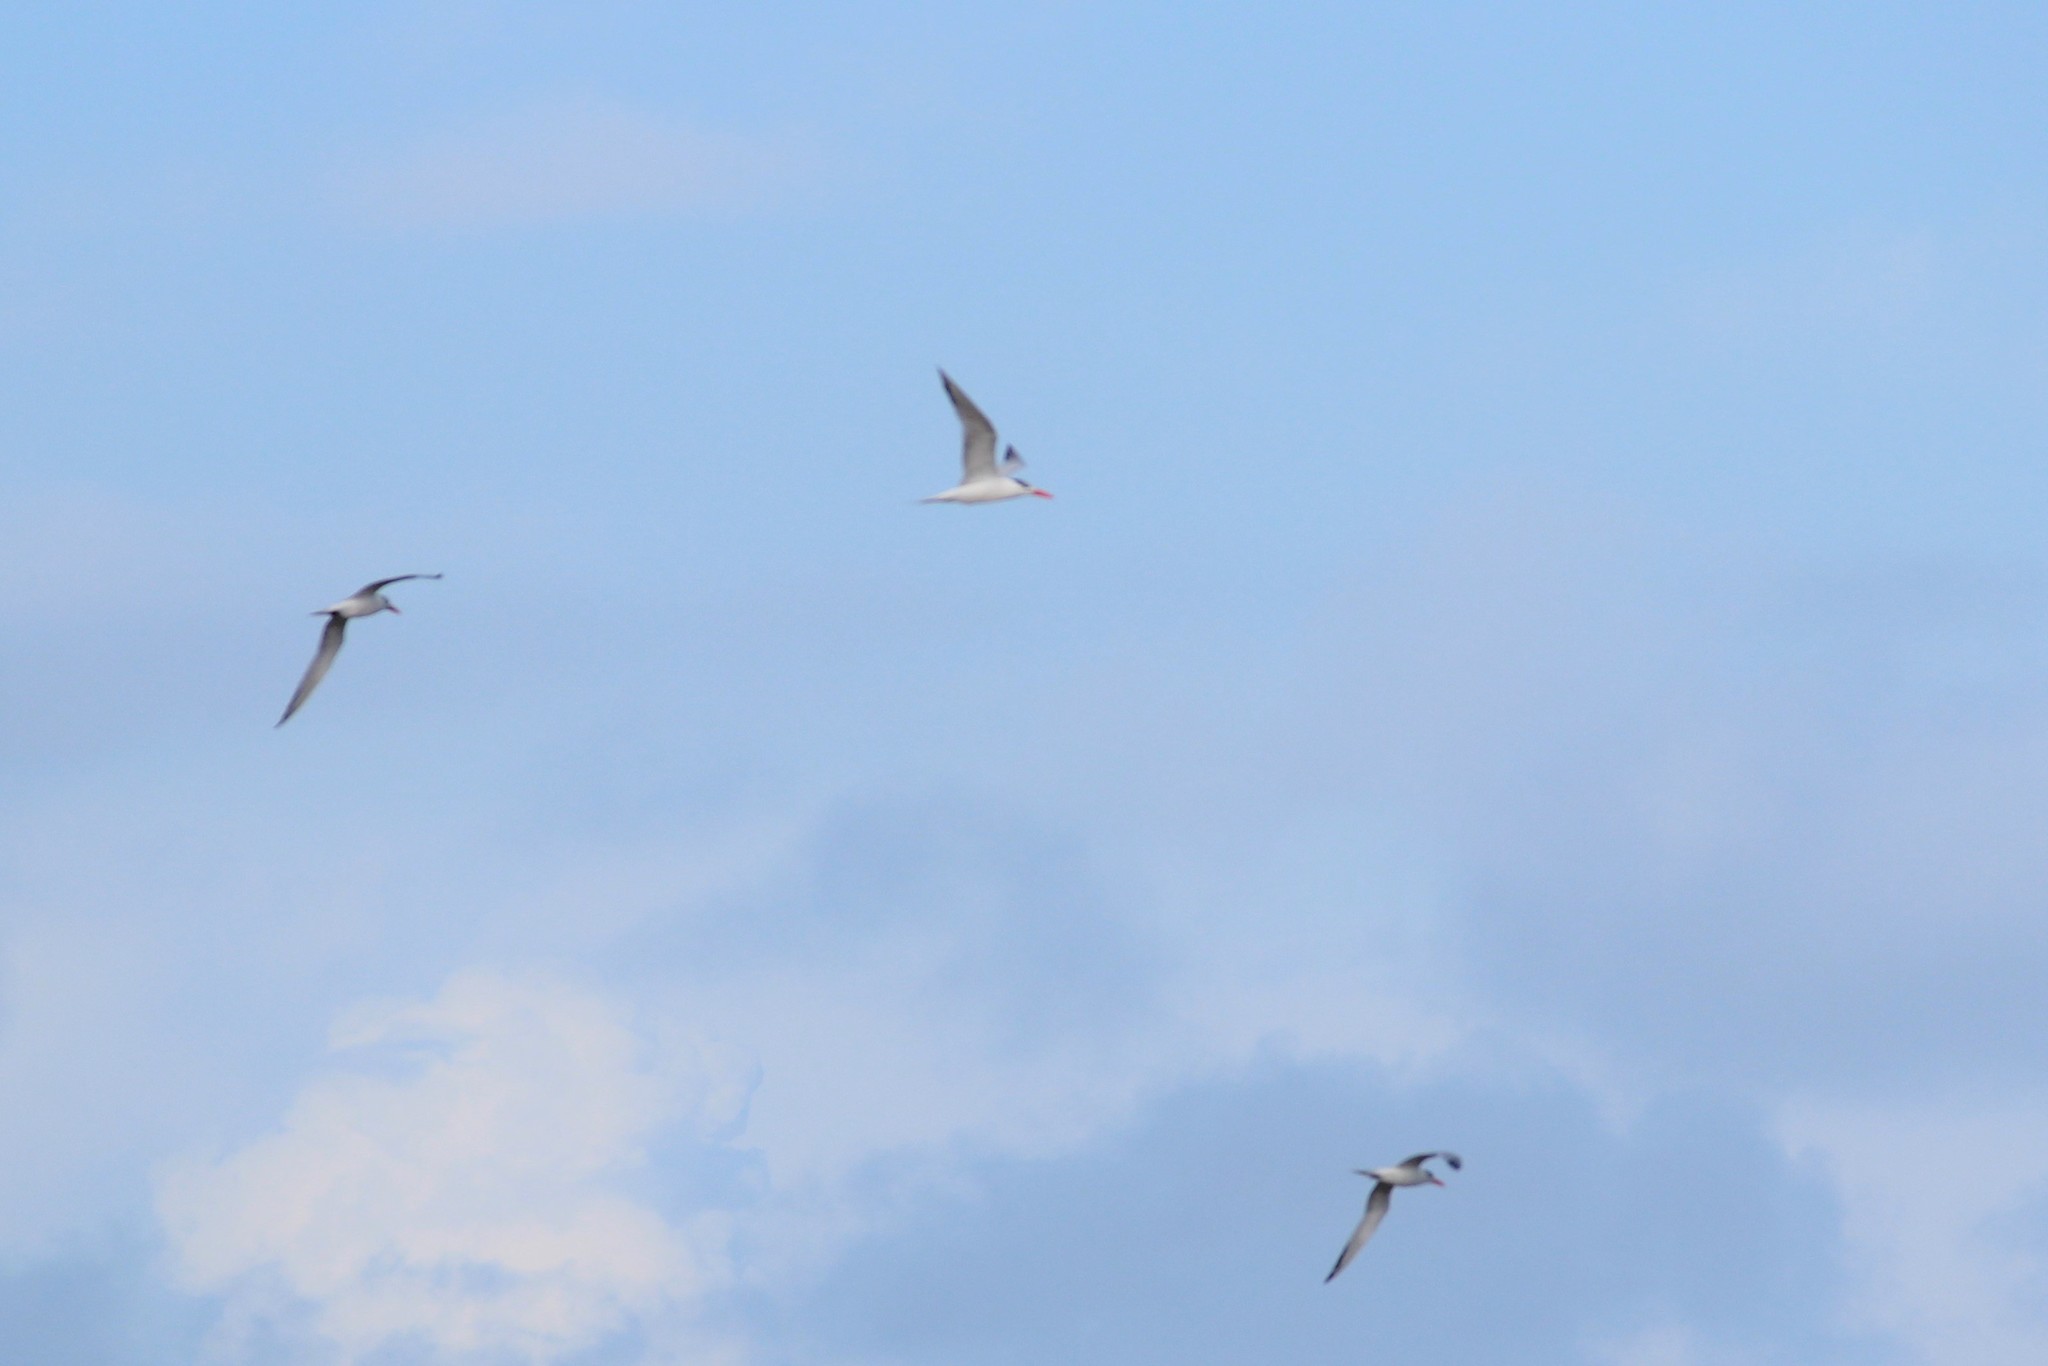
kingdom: Animalia
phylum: Chordata
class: Aves
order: Charadriiformes
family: Laridae
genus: Thalasseus
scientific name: Thalasseus maximus
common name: Royal tern
